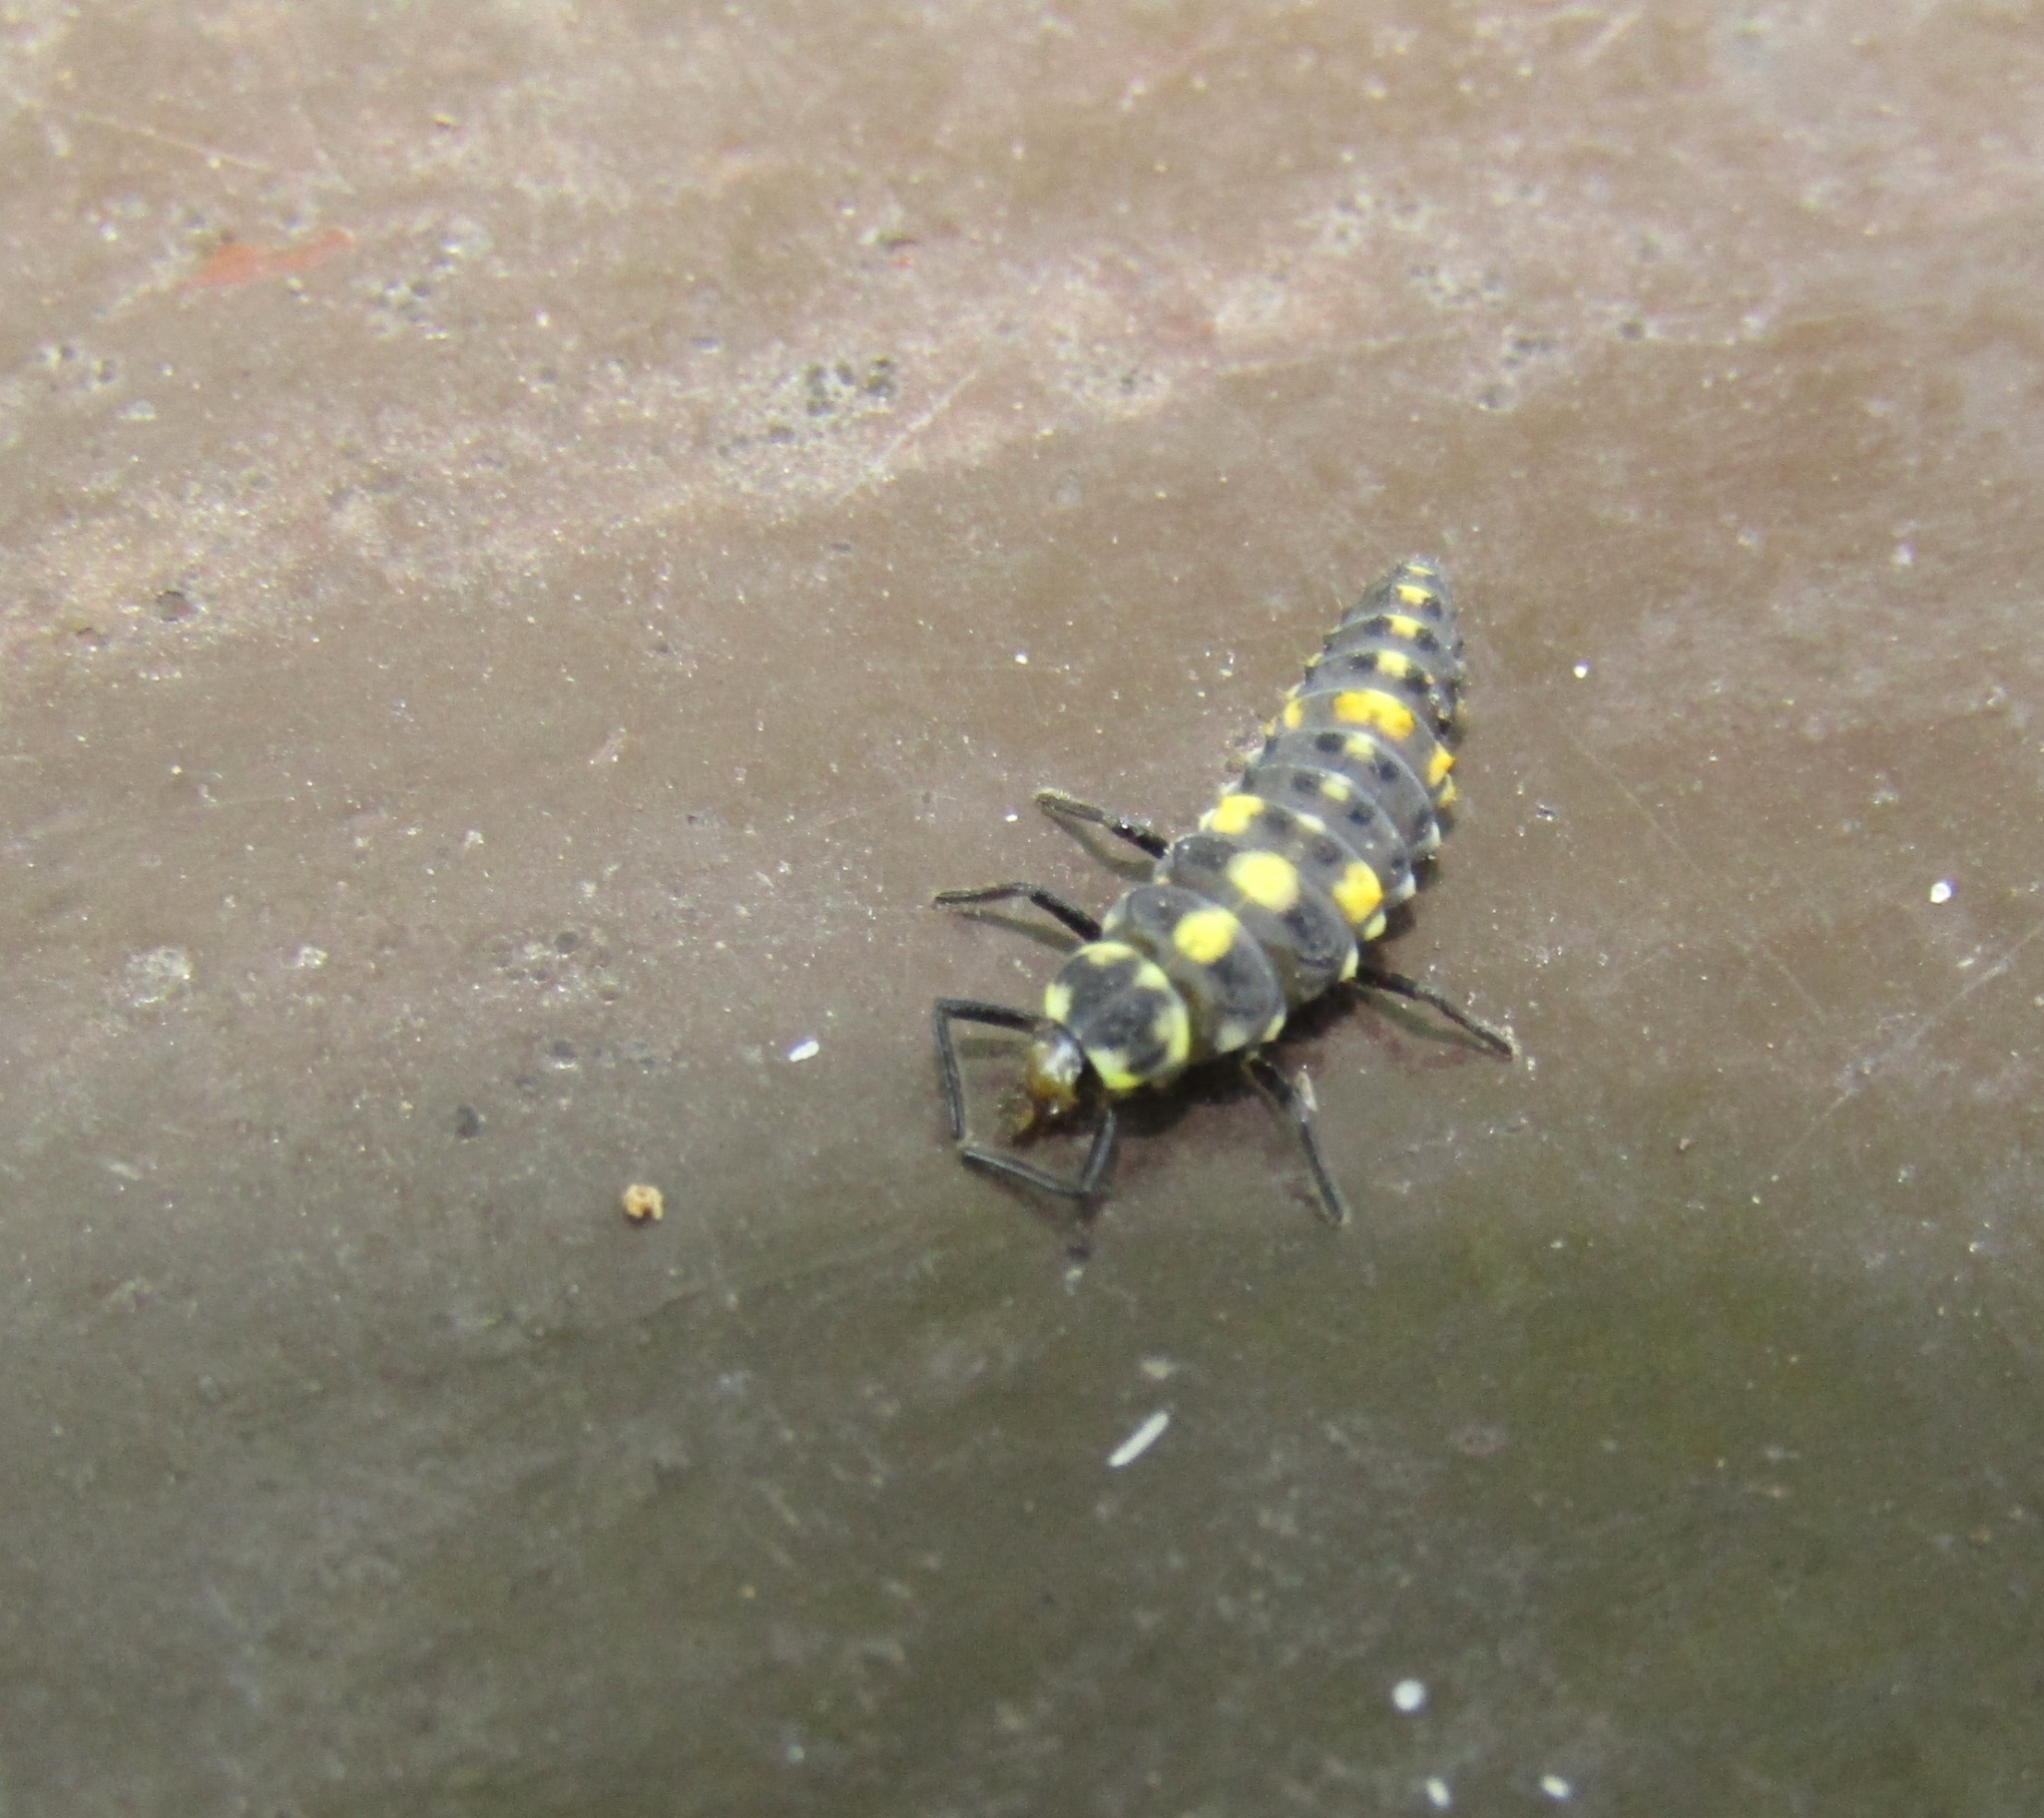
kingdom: Animalia
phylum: Arthropoda
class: Insecta
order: Coleoptera
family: Coccinellidae
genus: Olla
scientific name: Olla v-nigrum
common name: Ashy gray lady beetle
